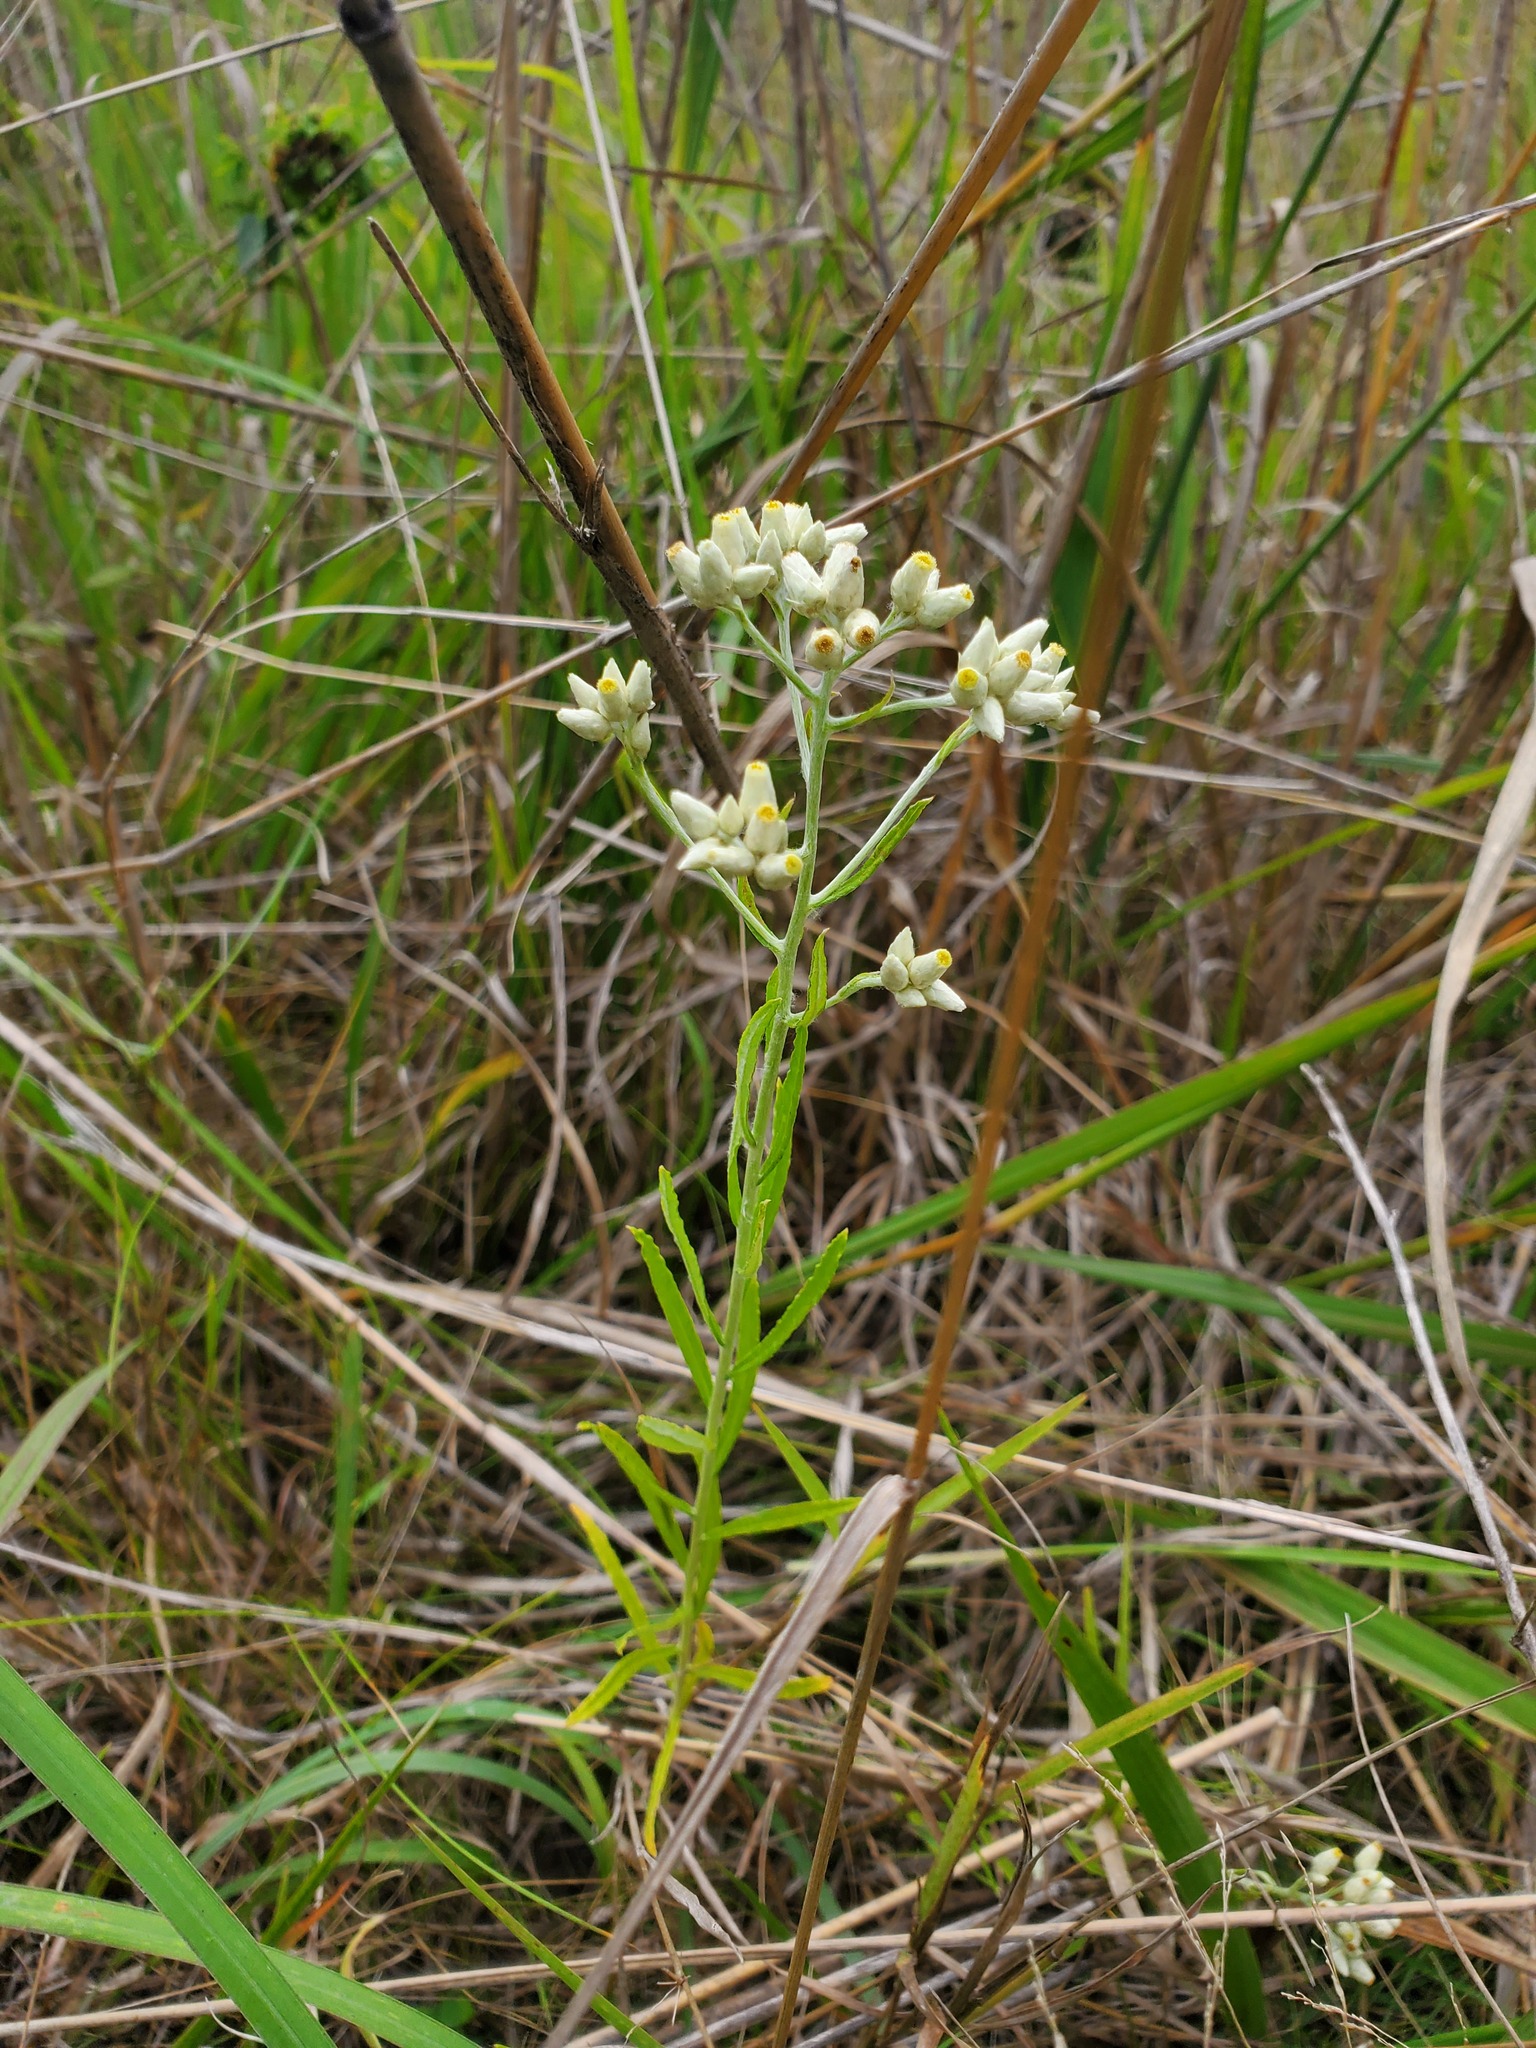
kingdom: Plantae
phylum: Tracheophyta
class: Magnoliopsida
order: Asterales
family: Asteraceae
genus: Pseudognaphalium
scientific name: Pseudognaphalium obtusifolium
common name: Eastern rabbit-tobacco
